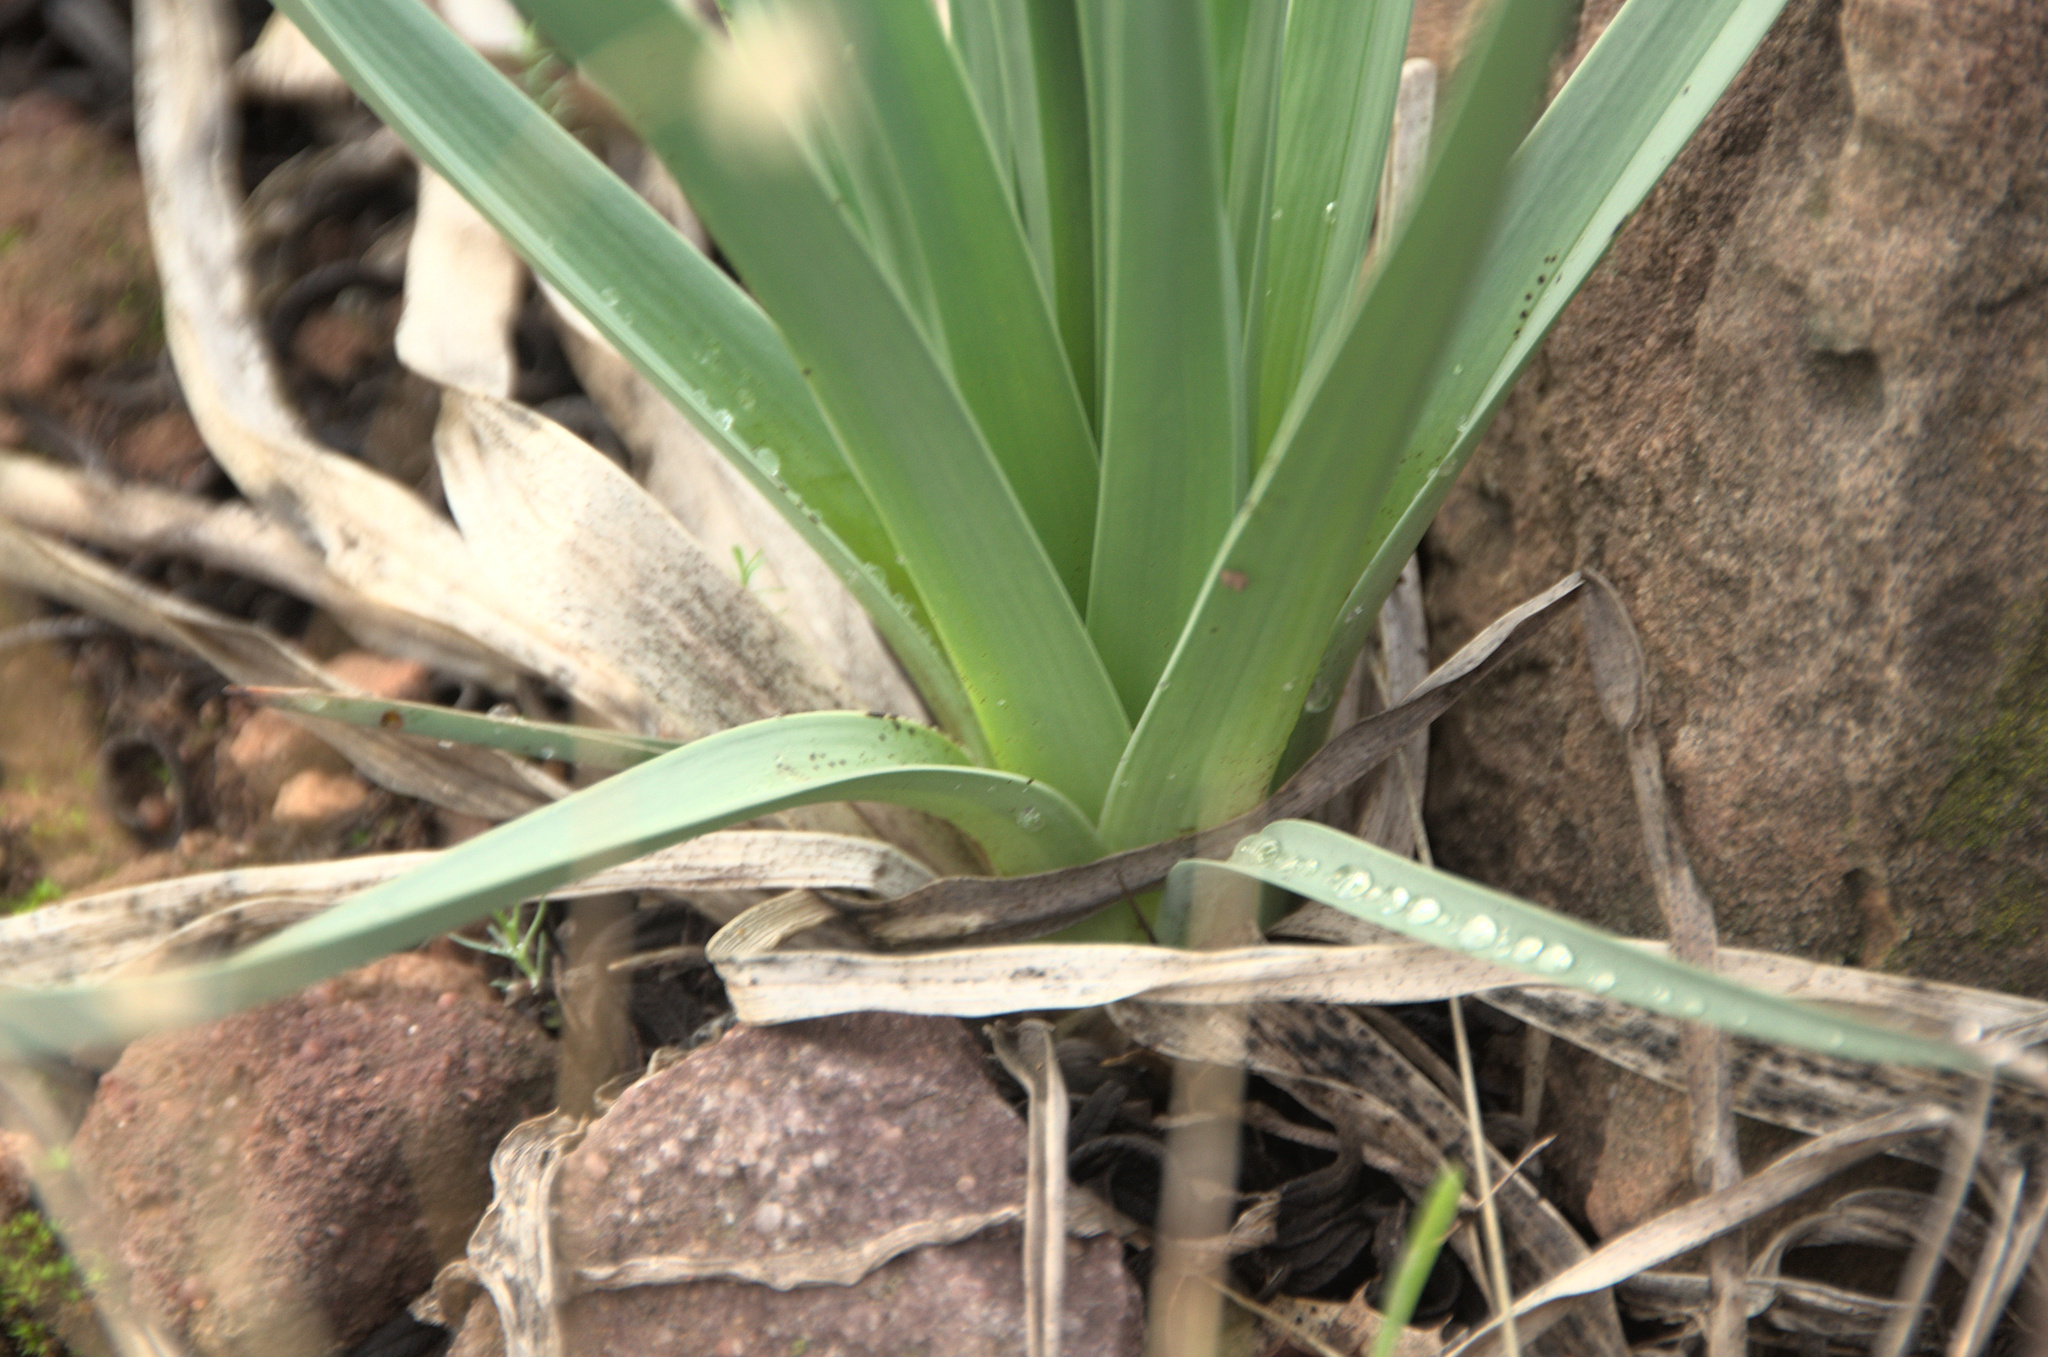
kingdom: Plantae
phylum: Tracheophyta
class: Liliopsida
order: Asparagales
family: Asphodelaceae
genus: Asphodelus
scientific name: Asphodelus ramosus
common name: Silverrod
